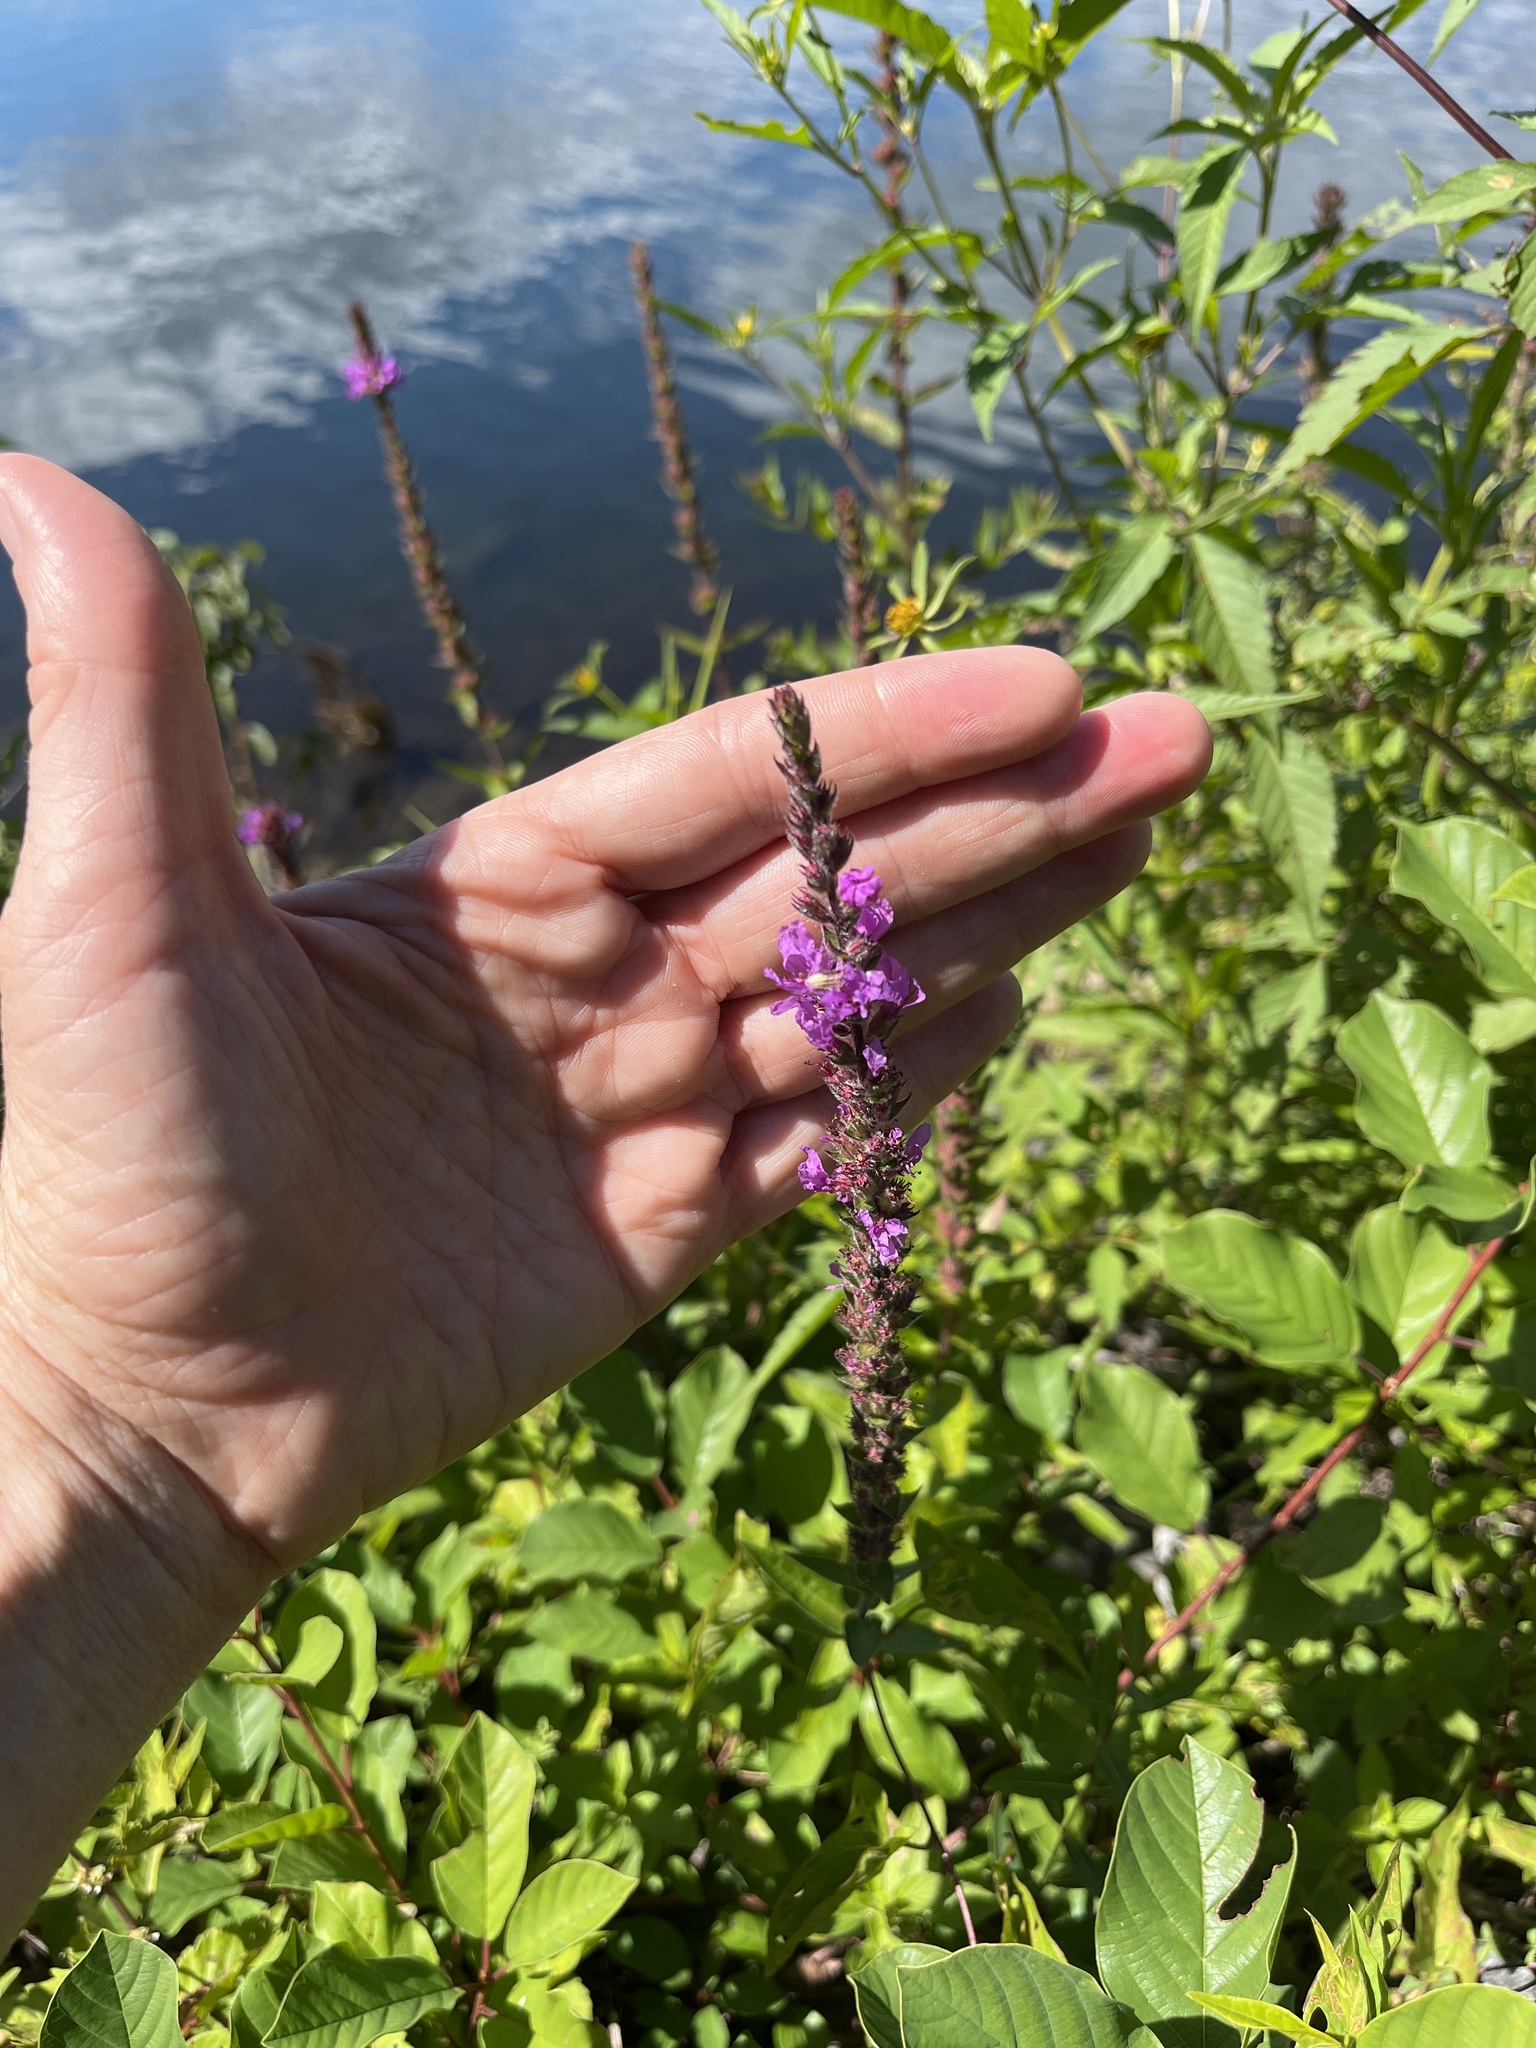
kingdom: Plantae
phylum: Tracheophyta
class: Magnoliopsida
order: Myrtales
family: Lythraceae
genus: Lythrum
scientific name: Lythrum salicaria
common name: Purple loosestrife
